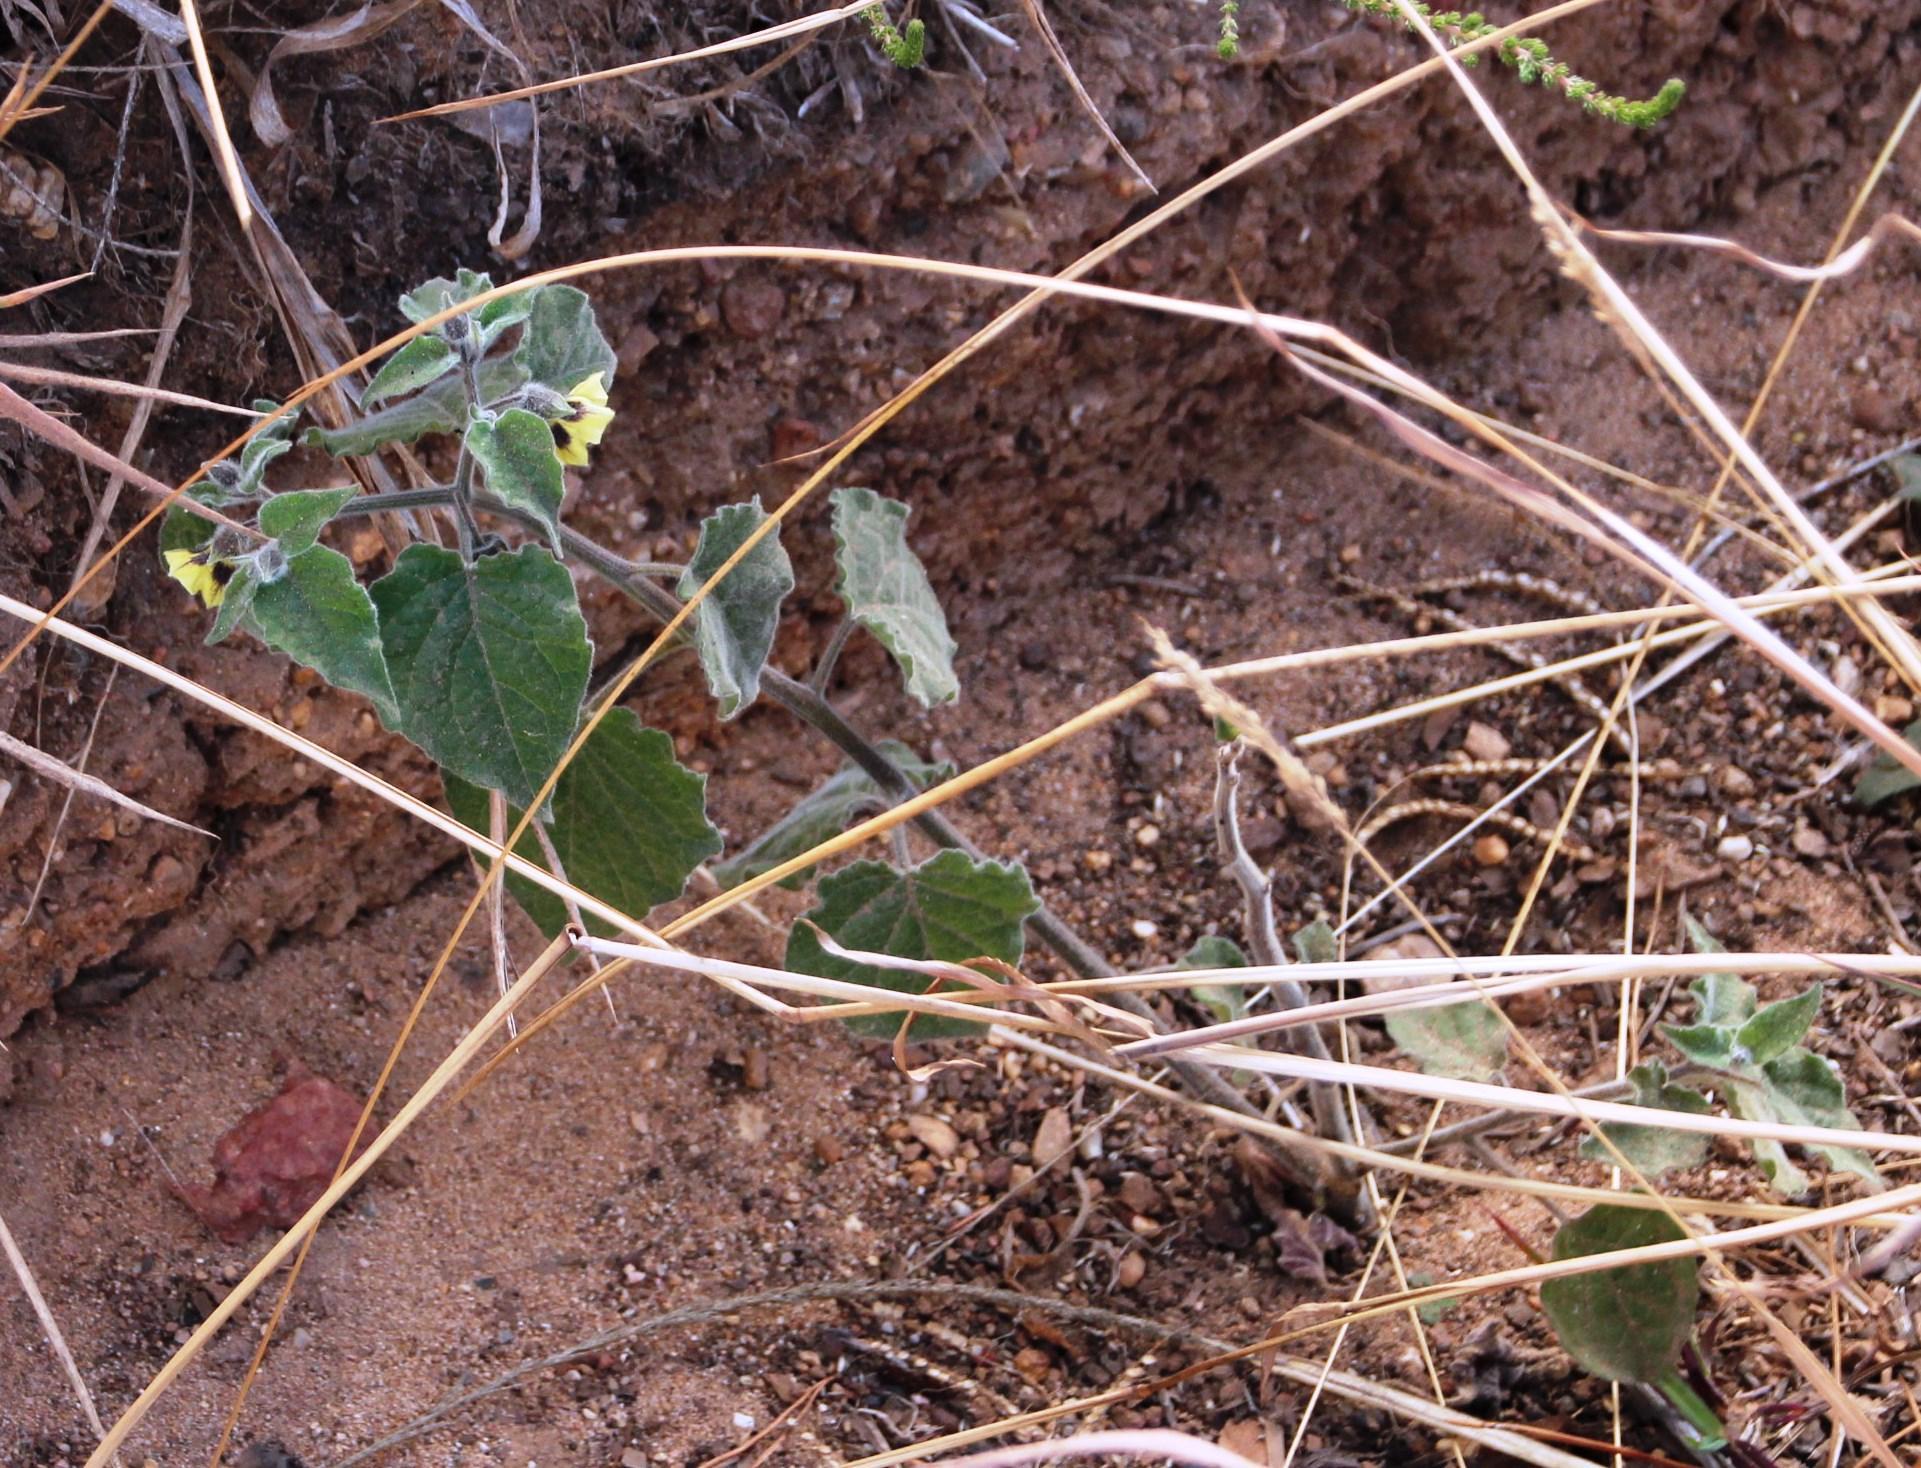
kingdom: Plantae
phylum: Tracheophyta
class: Magnoliopsida
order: Solanales
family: Solanaceae
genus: Physalis
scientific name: Physalis peruviana
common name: Cape-gooseberry
